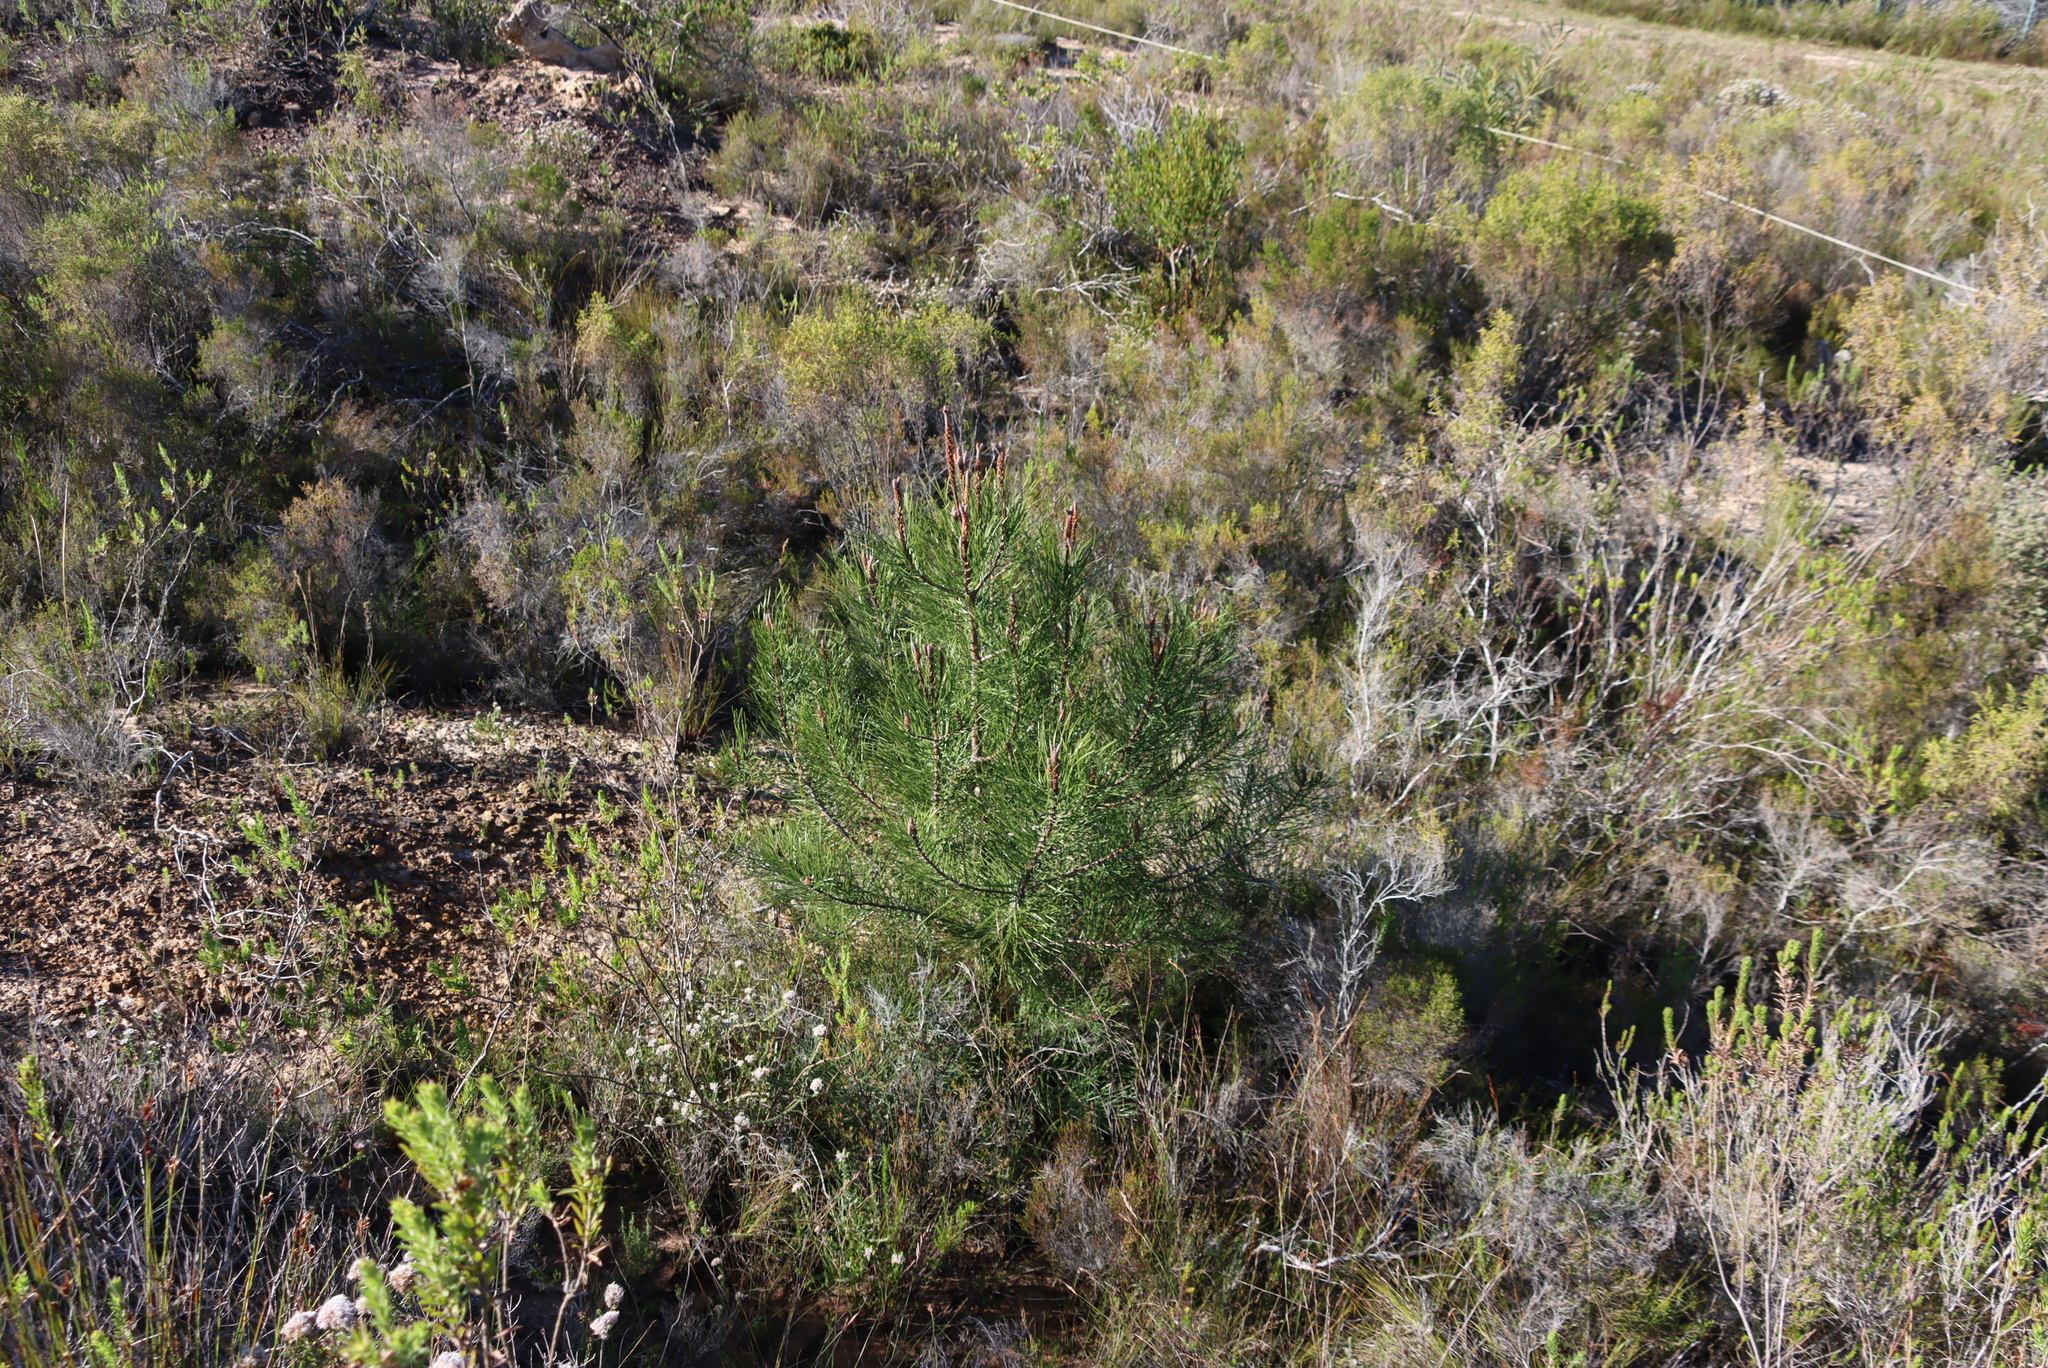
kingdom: Plantae
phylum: Tracheophyta
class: Pinopsida
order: Pinales
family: Pinaceae
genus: Pinus
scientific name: Pinus pinaster
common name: Maritime pine
